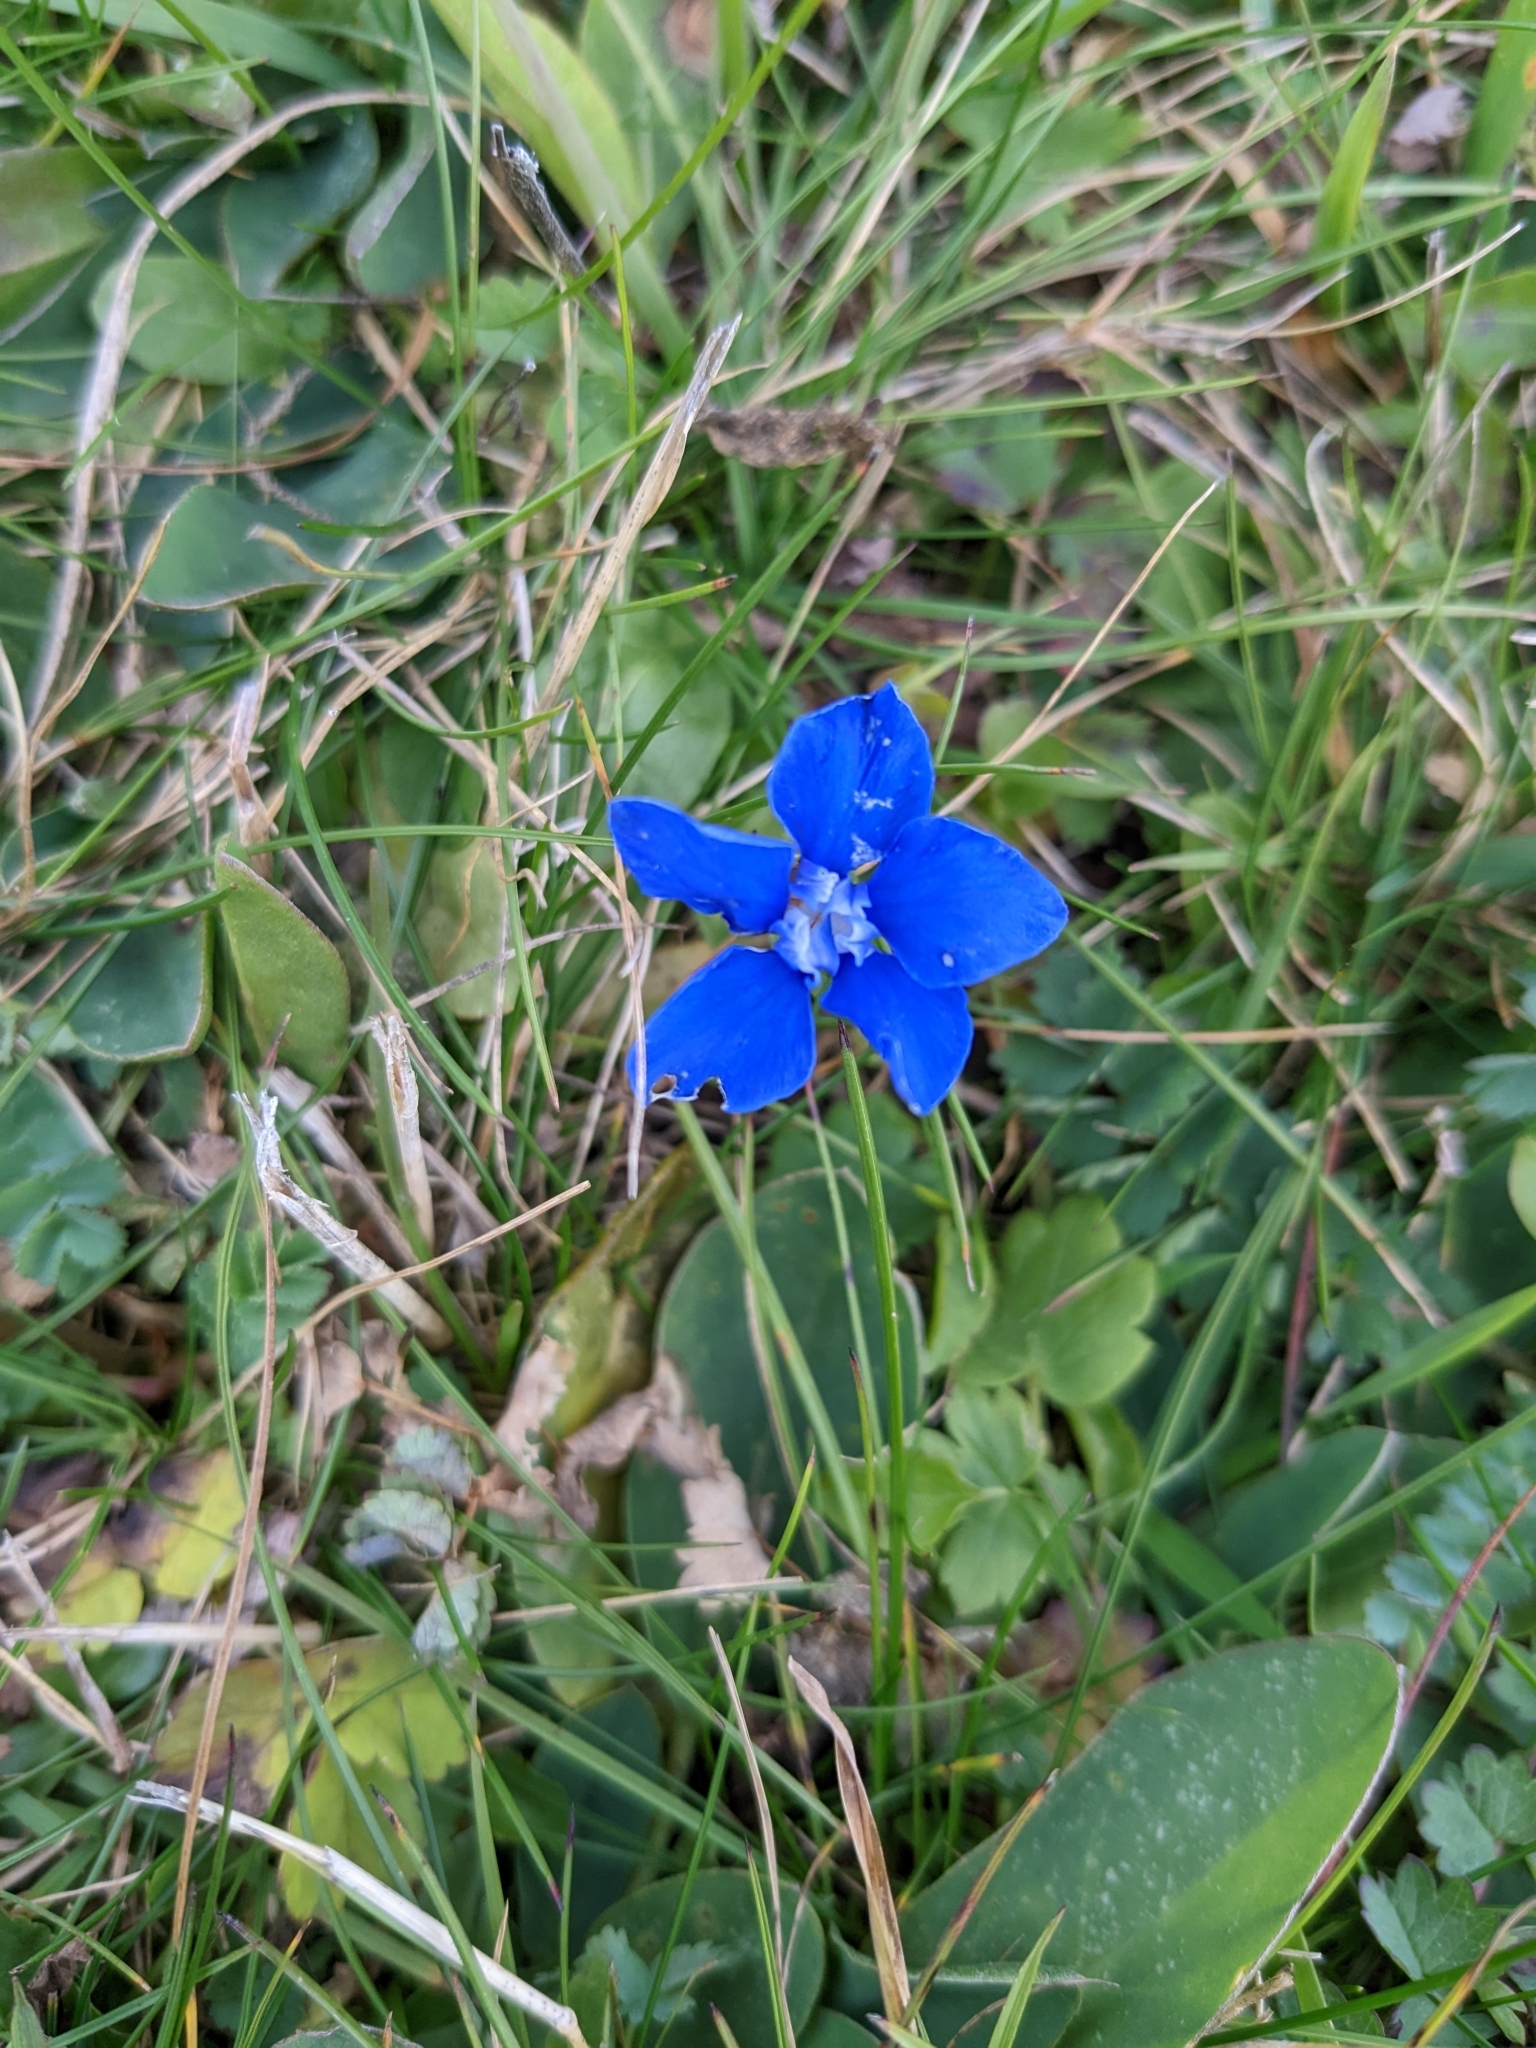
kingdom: Plantae
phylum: Tracheophyta
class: Magnoliopsida
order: Gentianales
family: Gentianaceae
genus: Gentiana
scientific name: Gentiana verna
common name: Spring gentian
